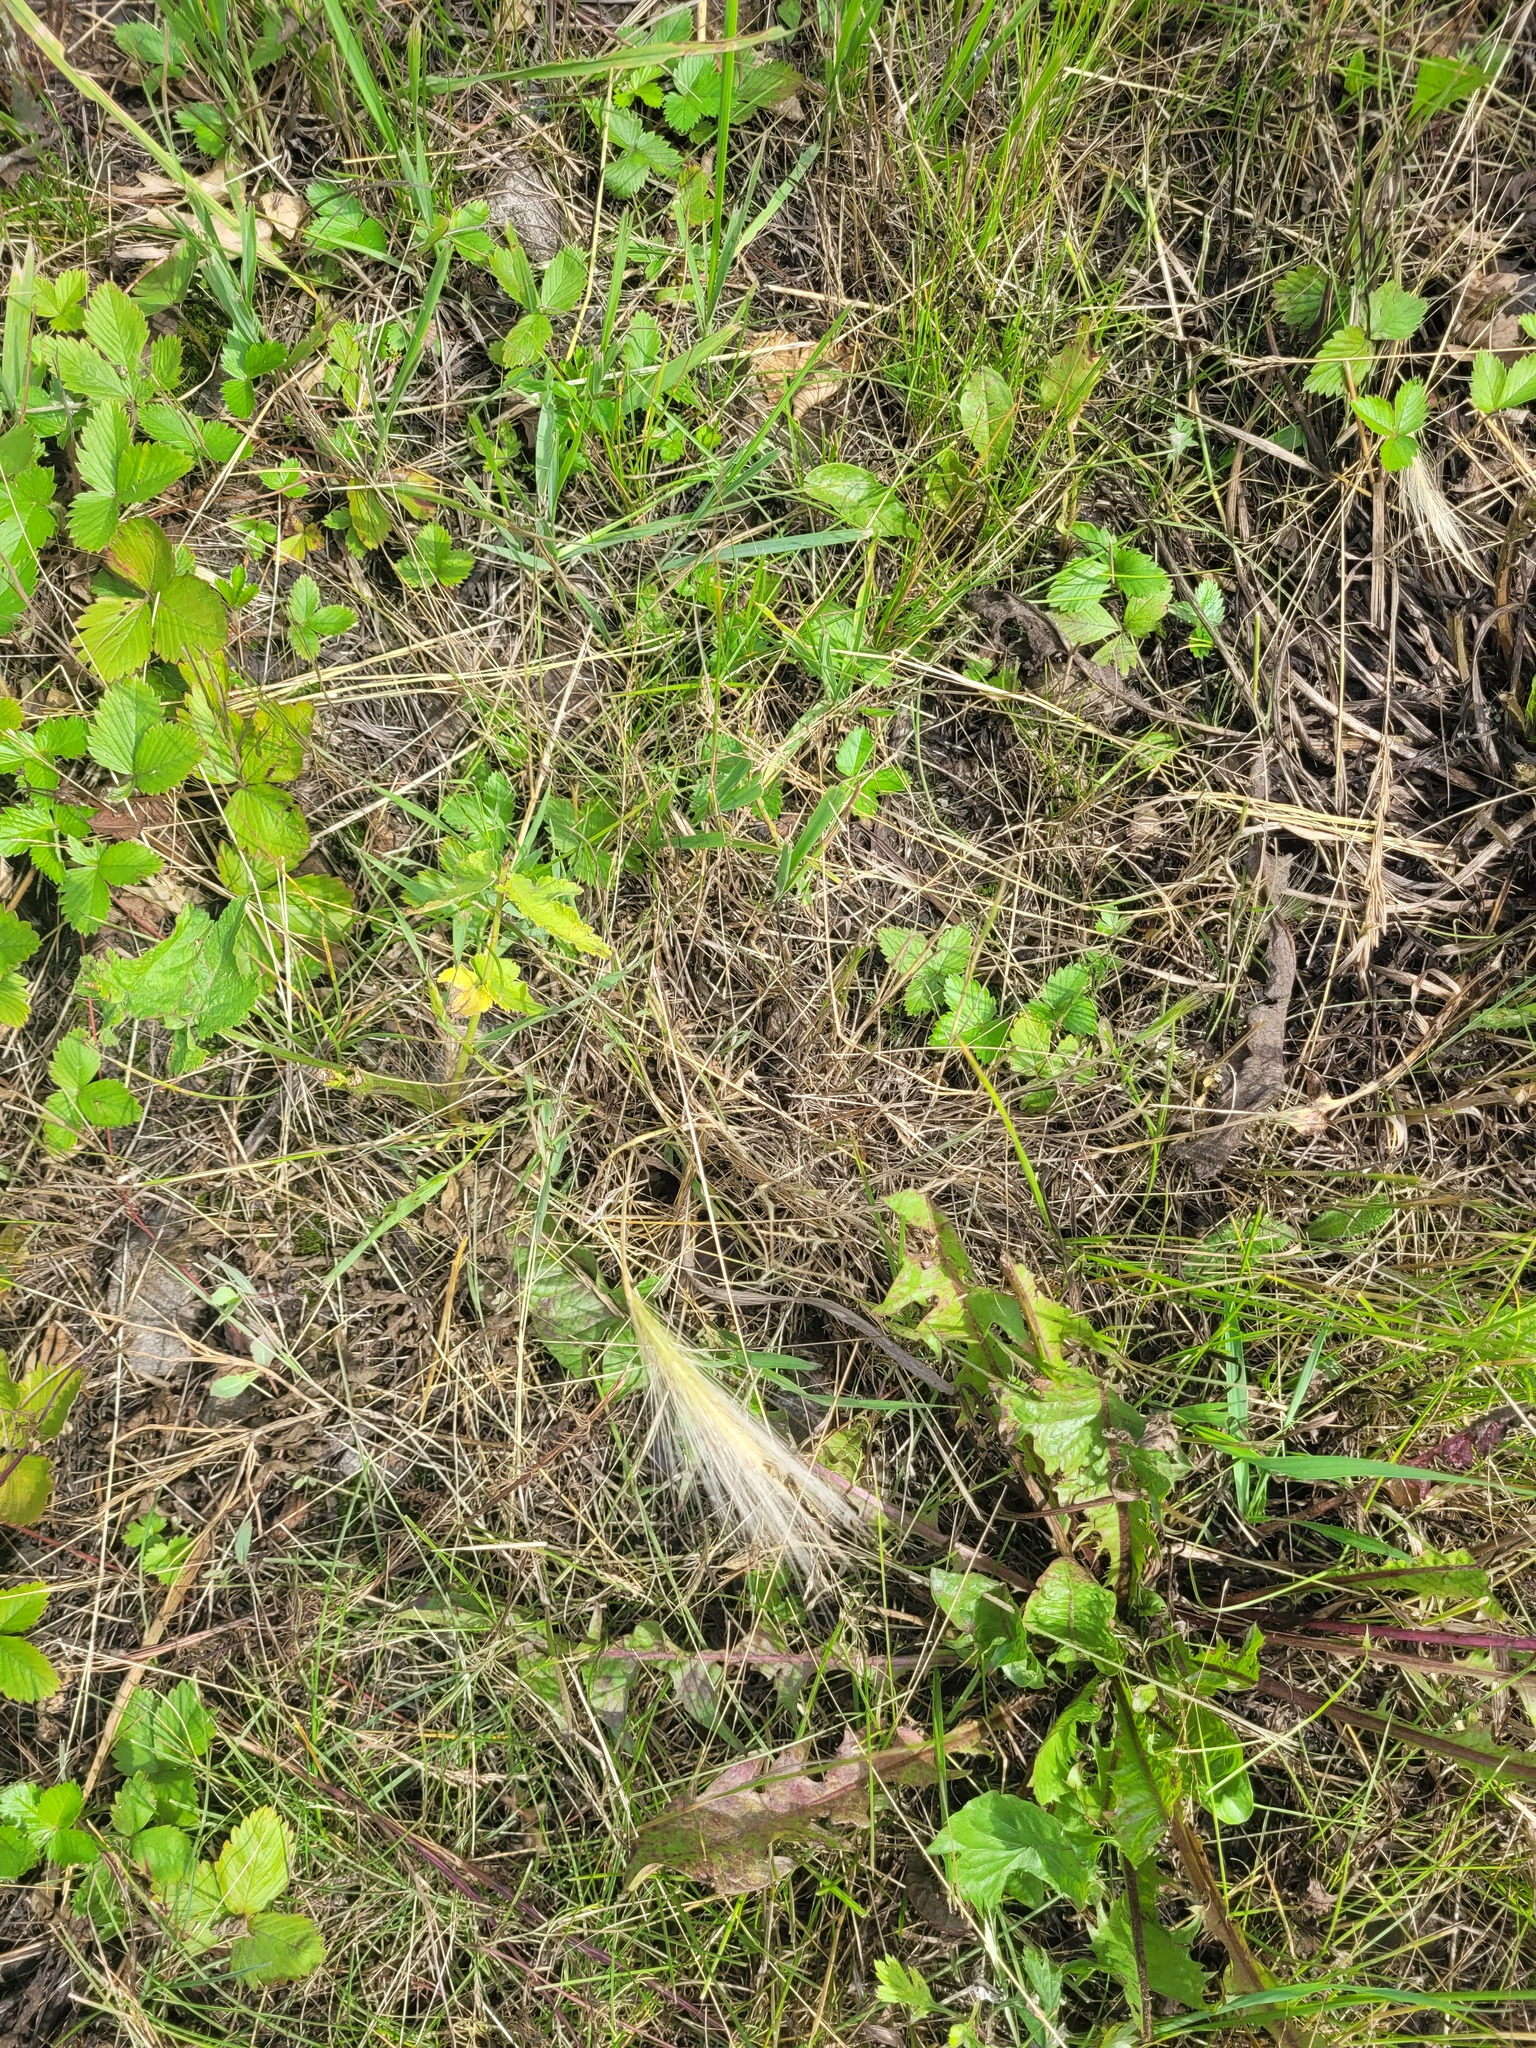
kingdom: Plantae
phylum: Tracheophyta
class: Liliopsida
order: Poales
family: Poaceae
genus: Hordeum
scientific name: Hordeum jubatum
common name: Foxtail barley
